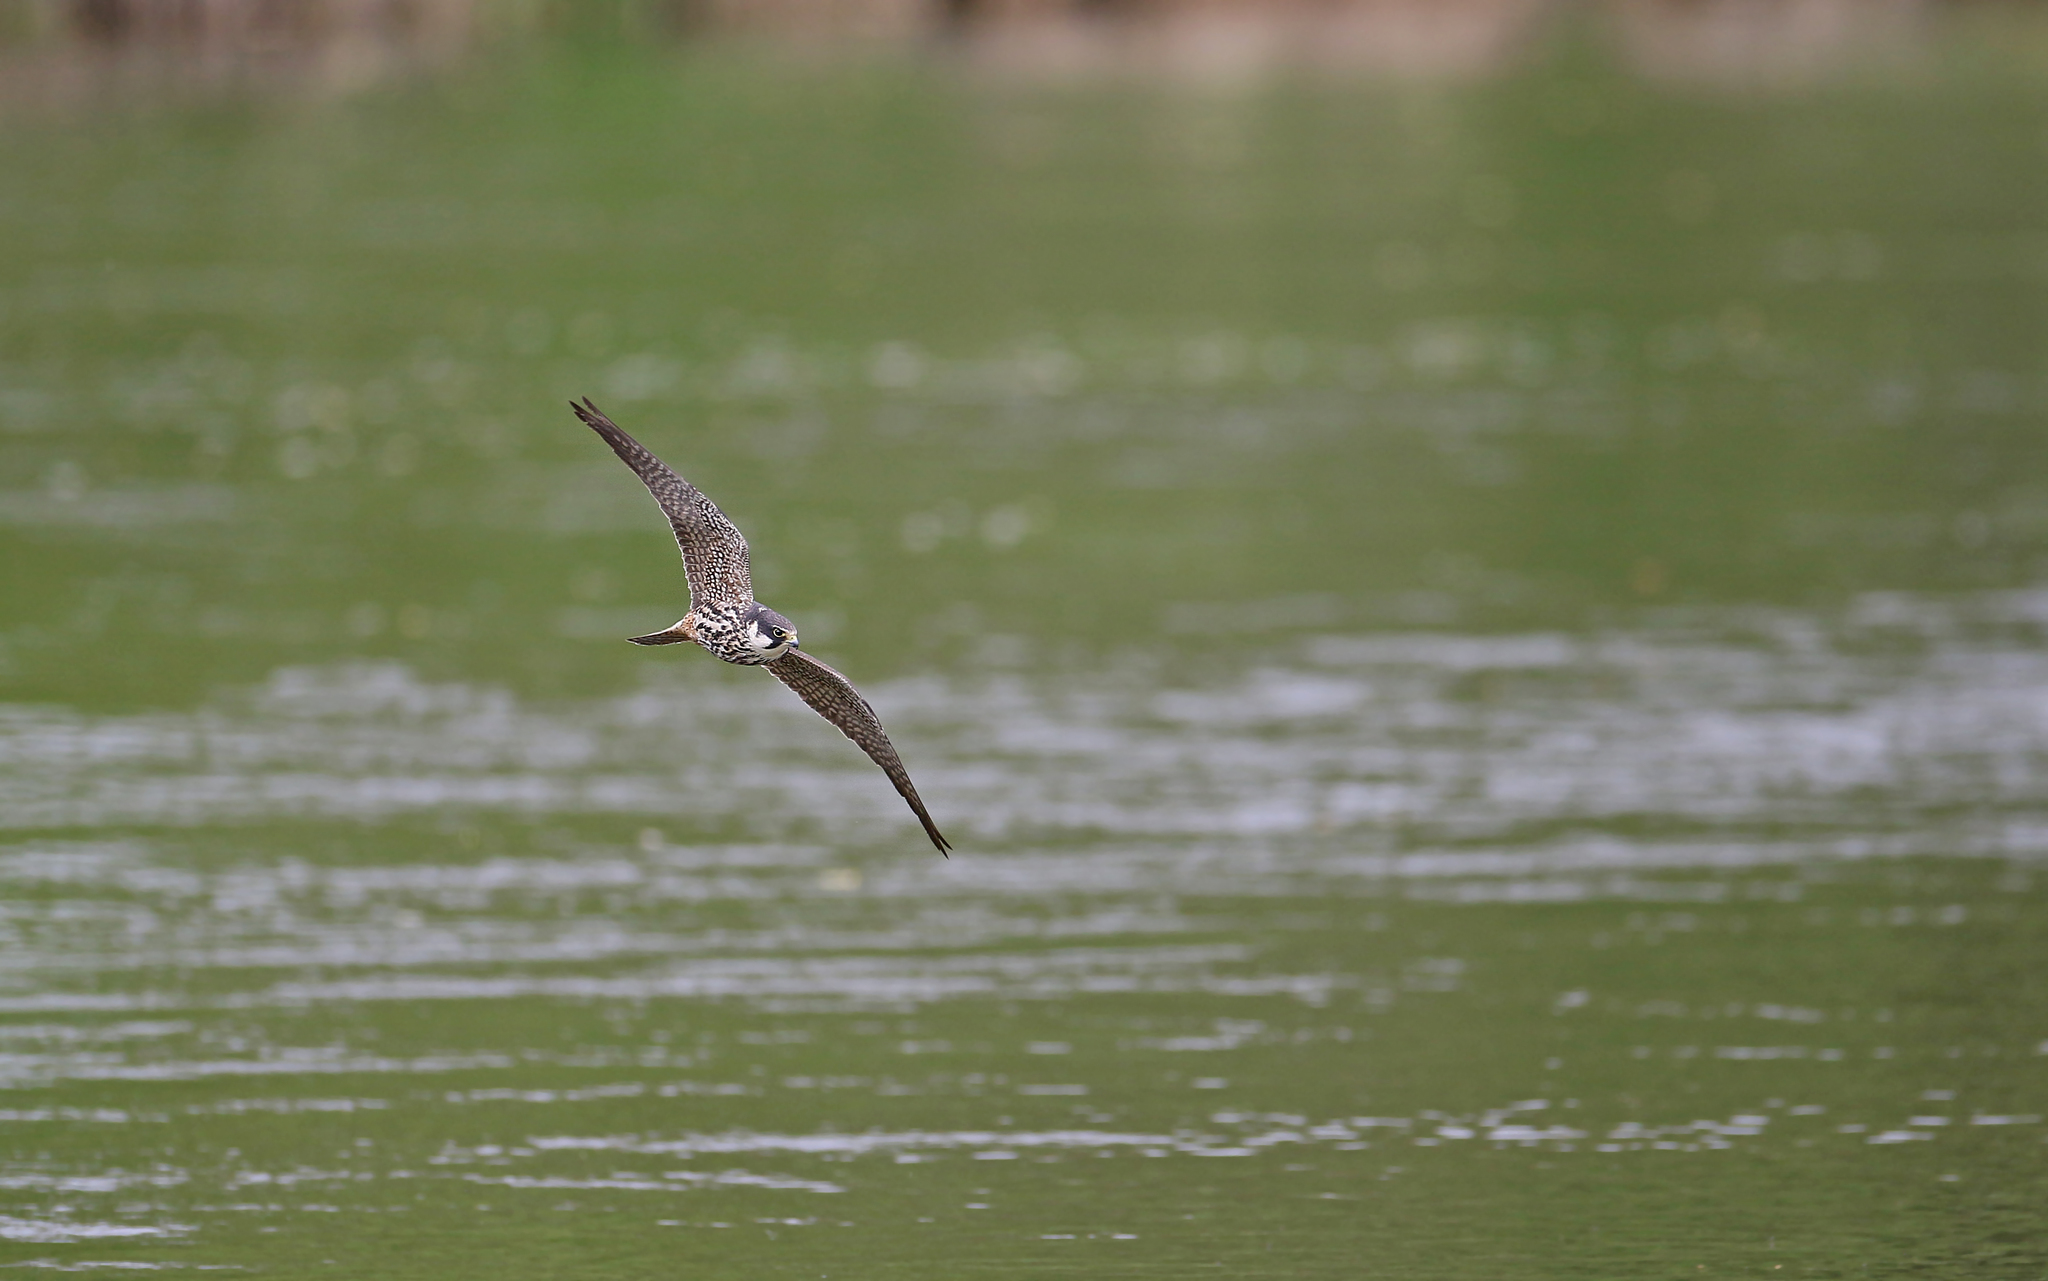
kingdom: Animalia
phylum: Chordata
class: Aves
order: Falconiformes
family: Falconidae
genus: Falco
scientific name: Falco subbuteo
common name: Eurasian hobby
